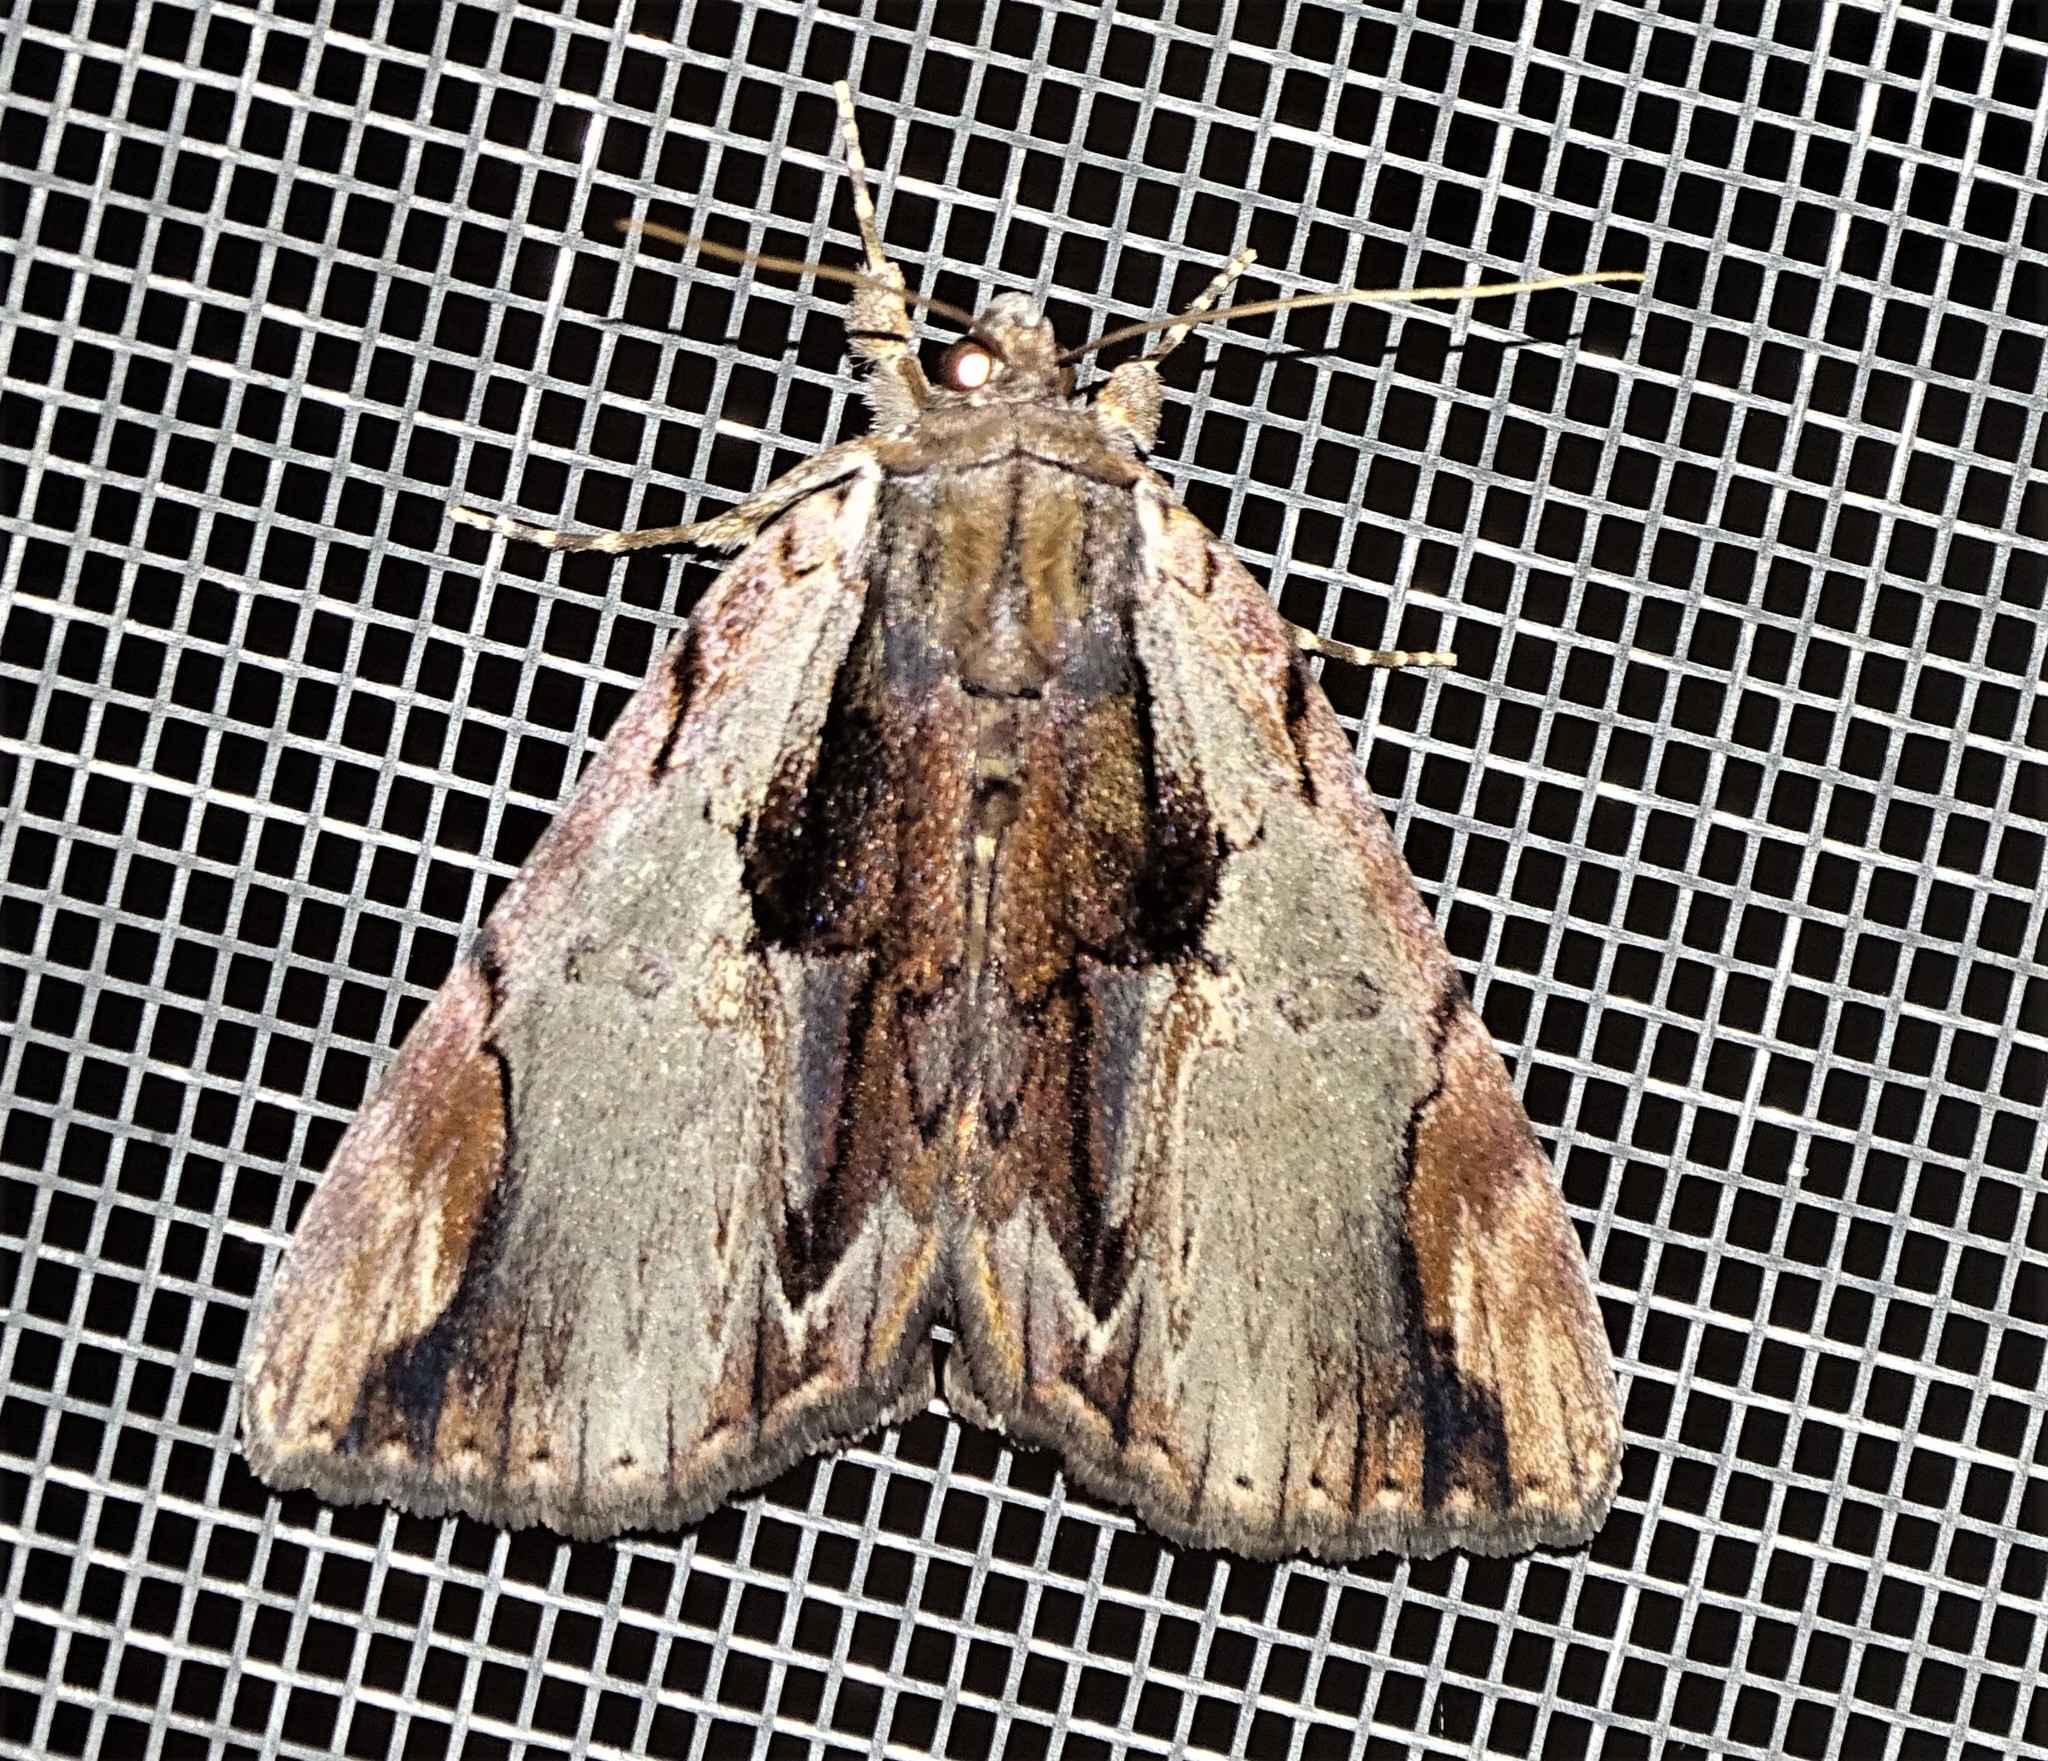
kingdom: Animalia
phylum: Arthropoda
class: Insecta
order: Lepidoptera
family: Erebidae
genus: Catocala
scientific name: Catocala ultronia
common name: Ultronia underwing
